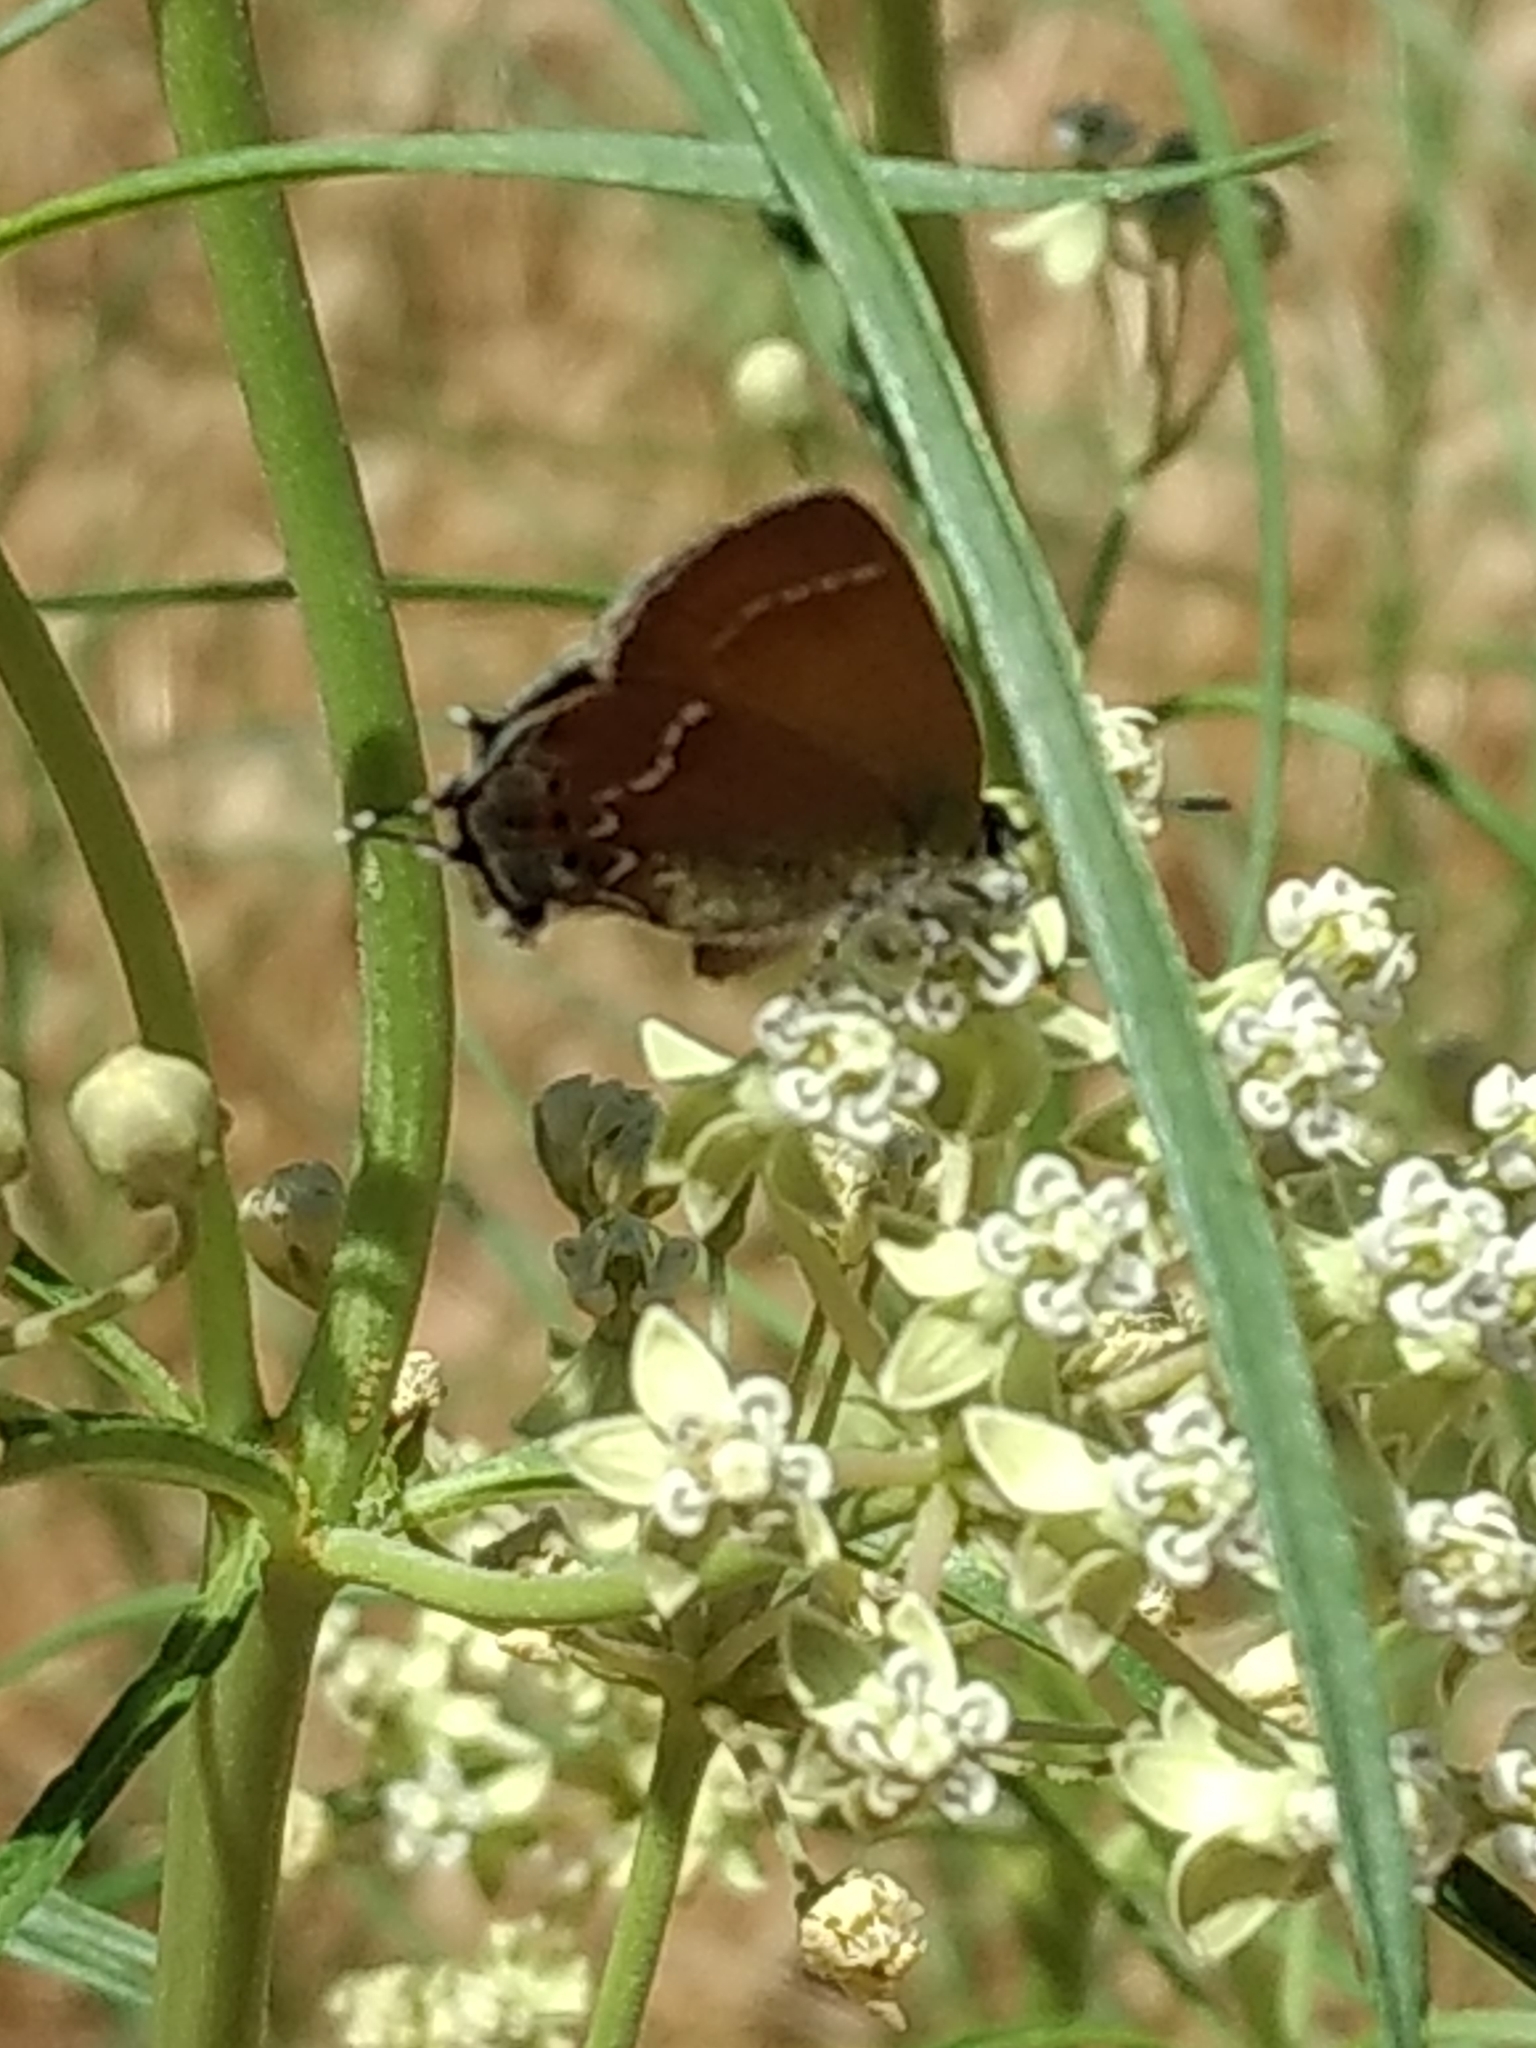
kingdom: Animalia
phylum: Arthropoda
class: Insecta
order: Lepidoptera
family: Lycaenidae
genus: Mitoura
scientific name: Mitoura gryneus
